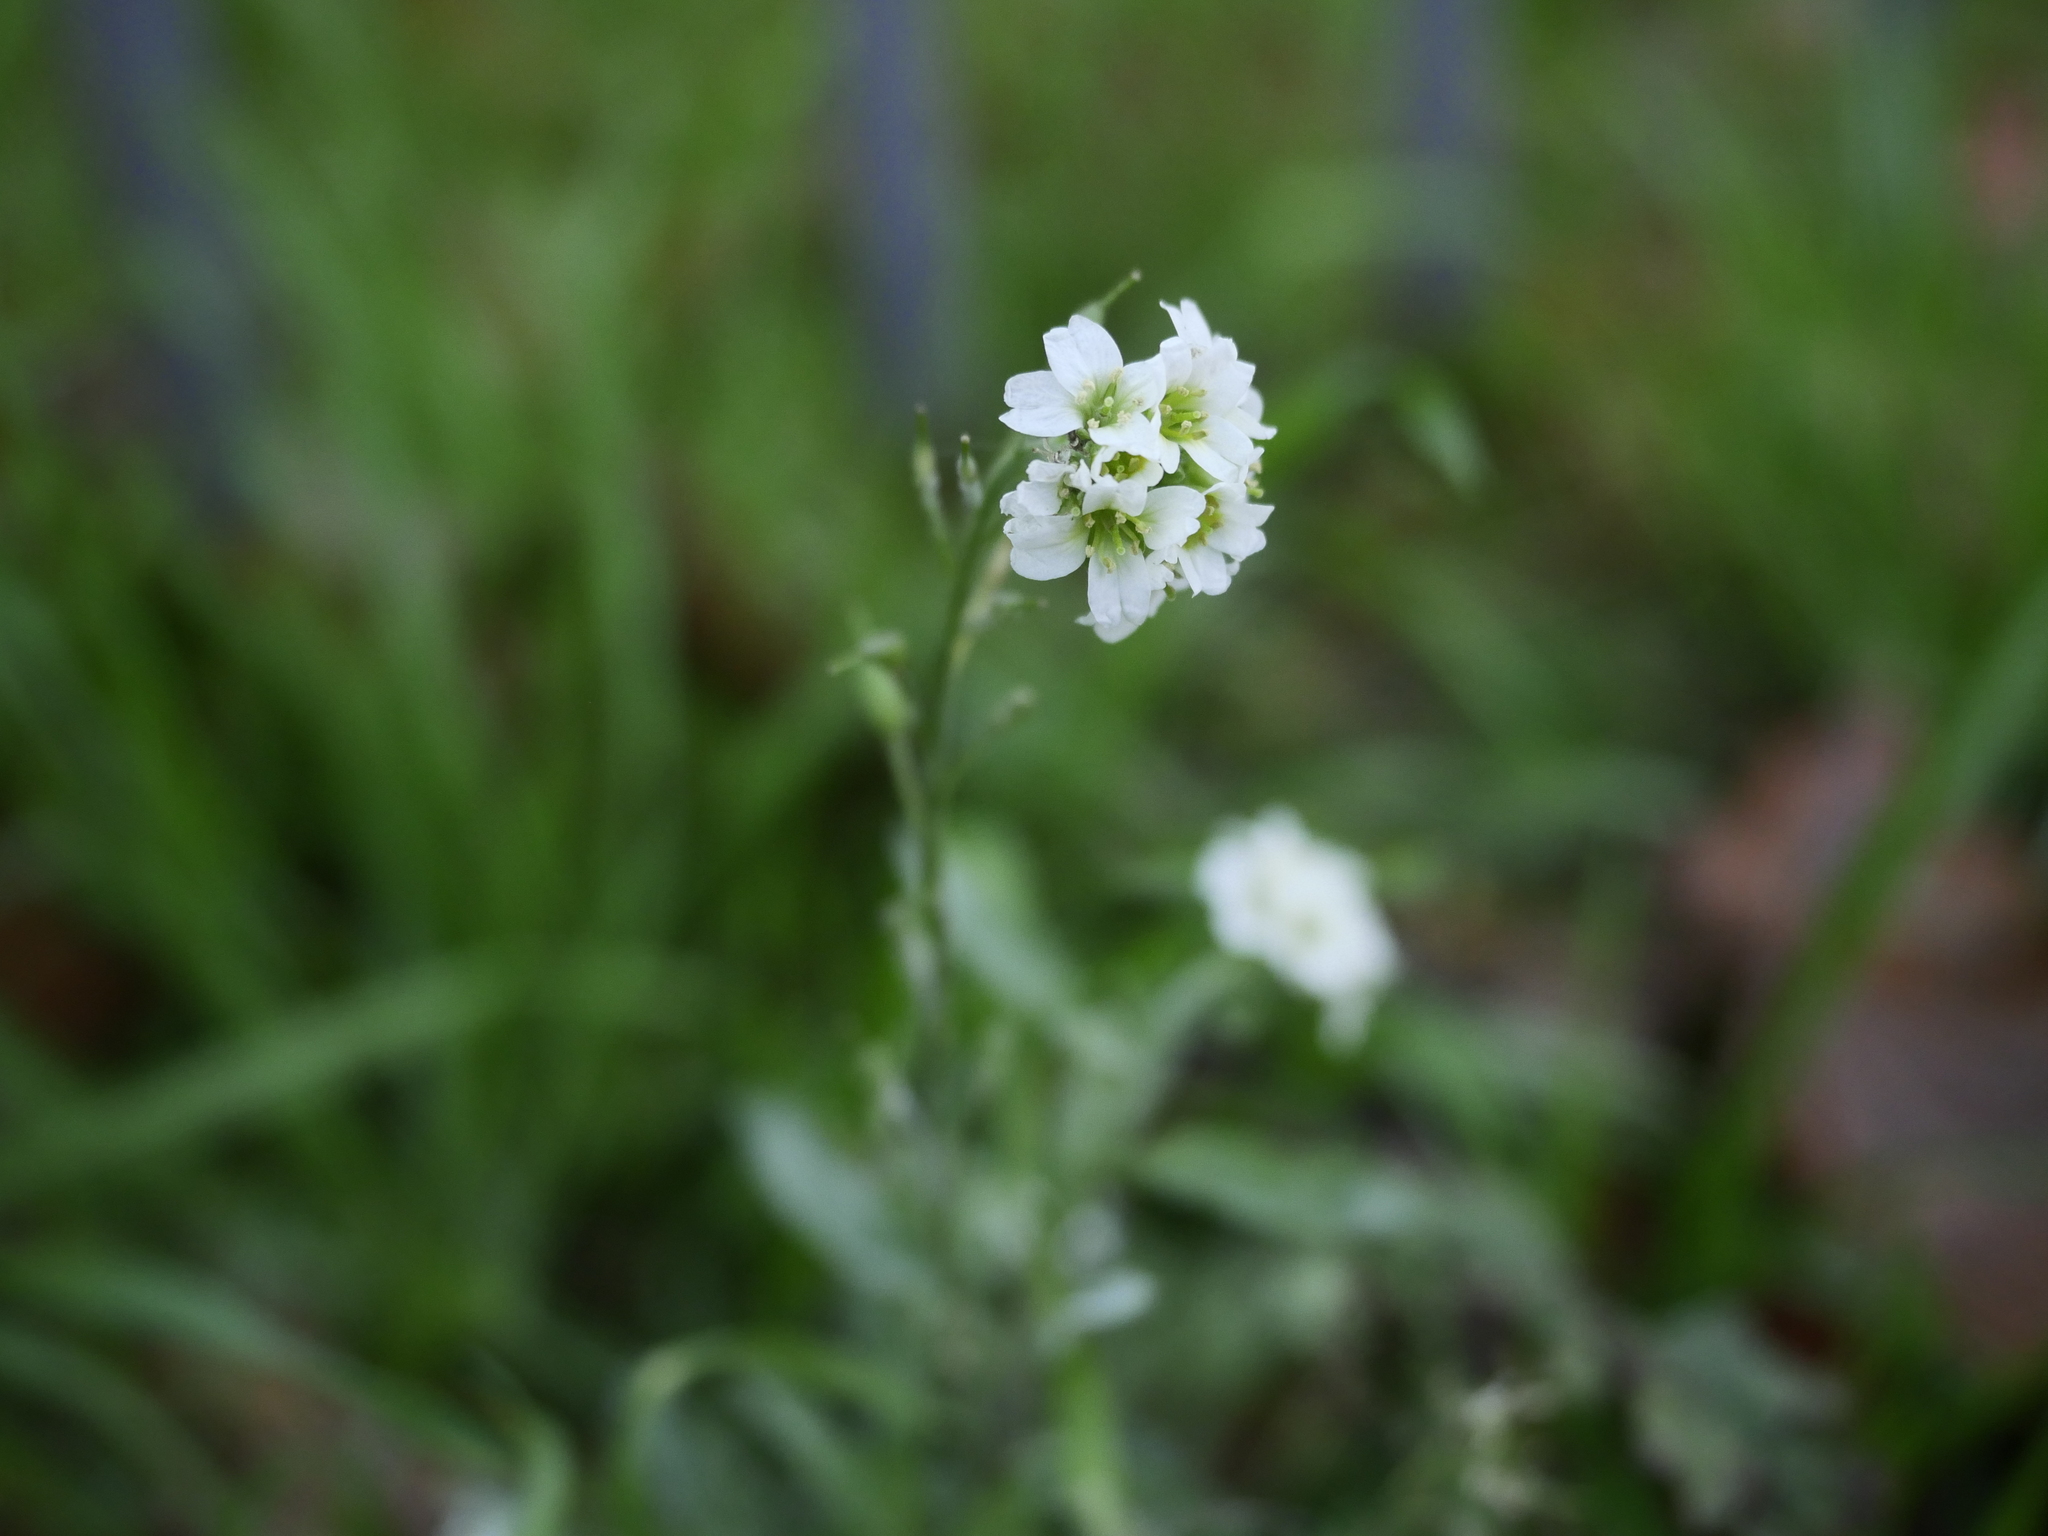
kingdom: Plantae
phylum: Tracheophyta
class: Magnoliopsida
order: Brassicales
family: Brassicaceae
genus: Berteroa
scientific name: Berteroa incana
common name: Hoary alison
